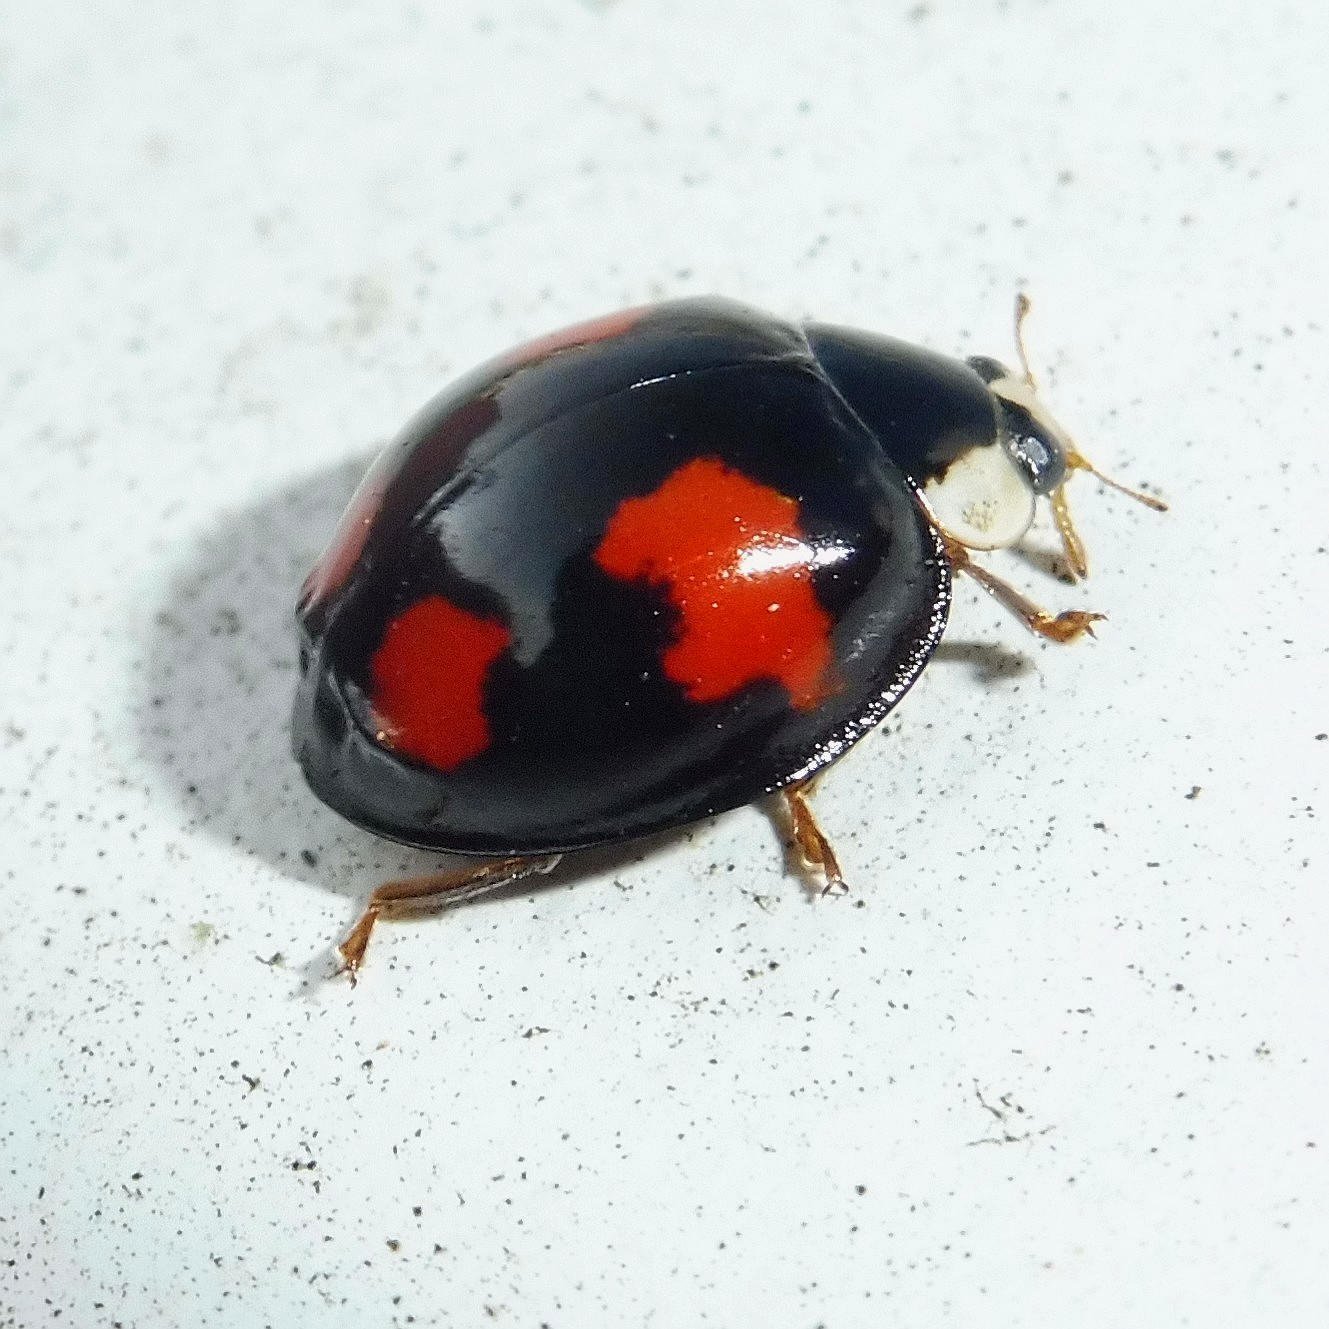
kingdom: Animalia
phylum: Arthropoda
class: Insecta
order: Coleoptera
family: Coccinellidae
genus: Harmonia
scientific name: Harmonia axyridis
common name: Harlequin ladybird
